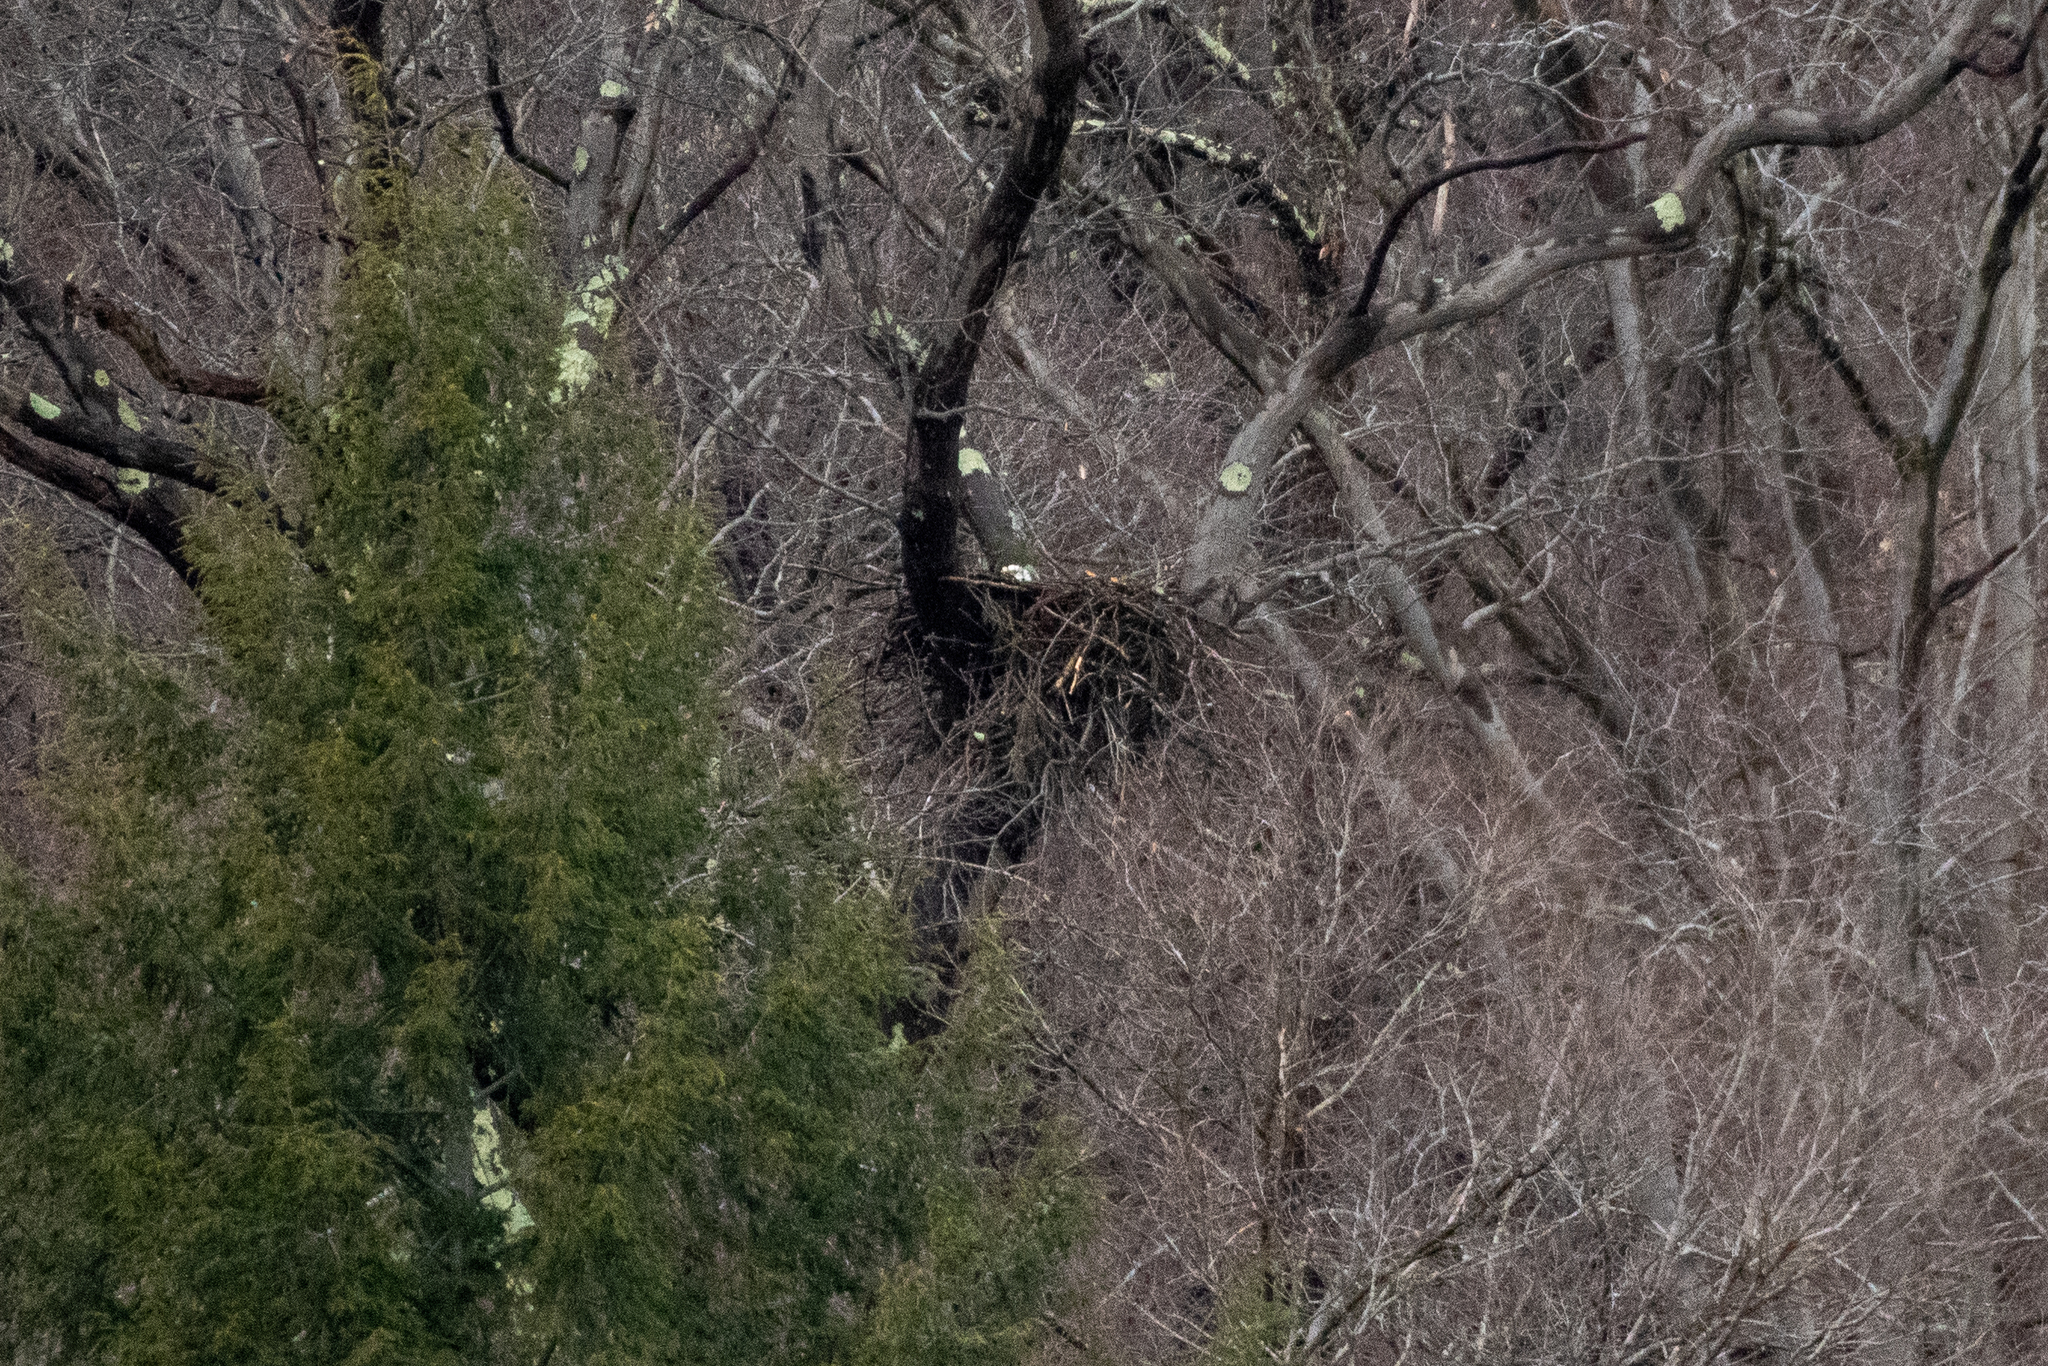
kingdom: Animalia
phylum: Chordata
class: Aves
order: Accipitriformes
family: Accipitridae
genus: Haliaeetus
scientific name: Haliaeetus leucocephalus
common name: Bald eagle
